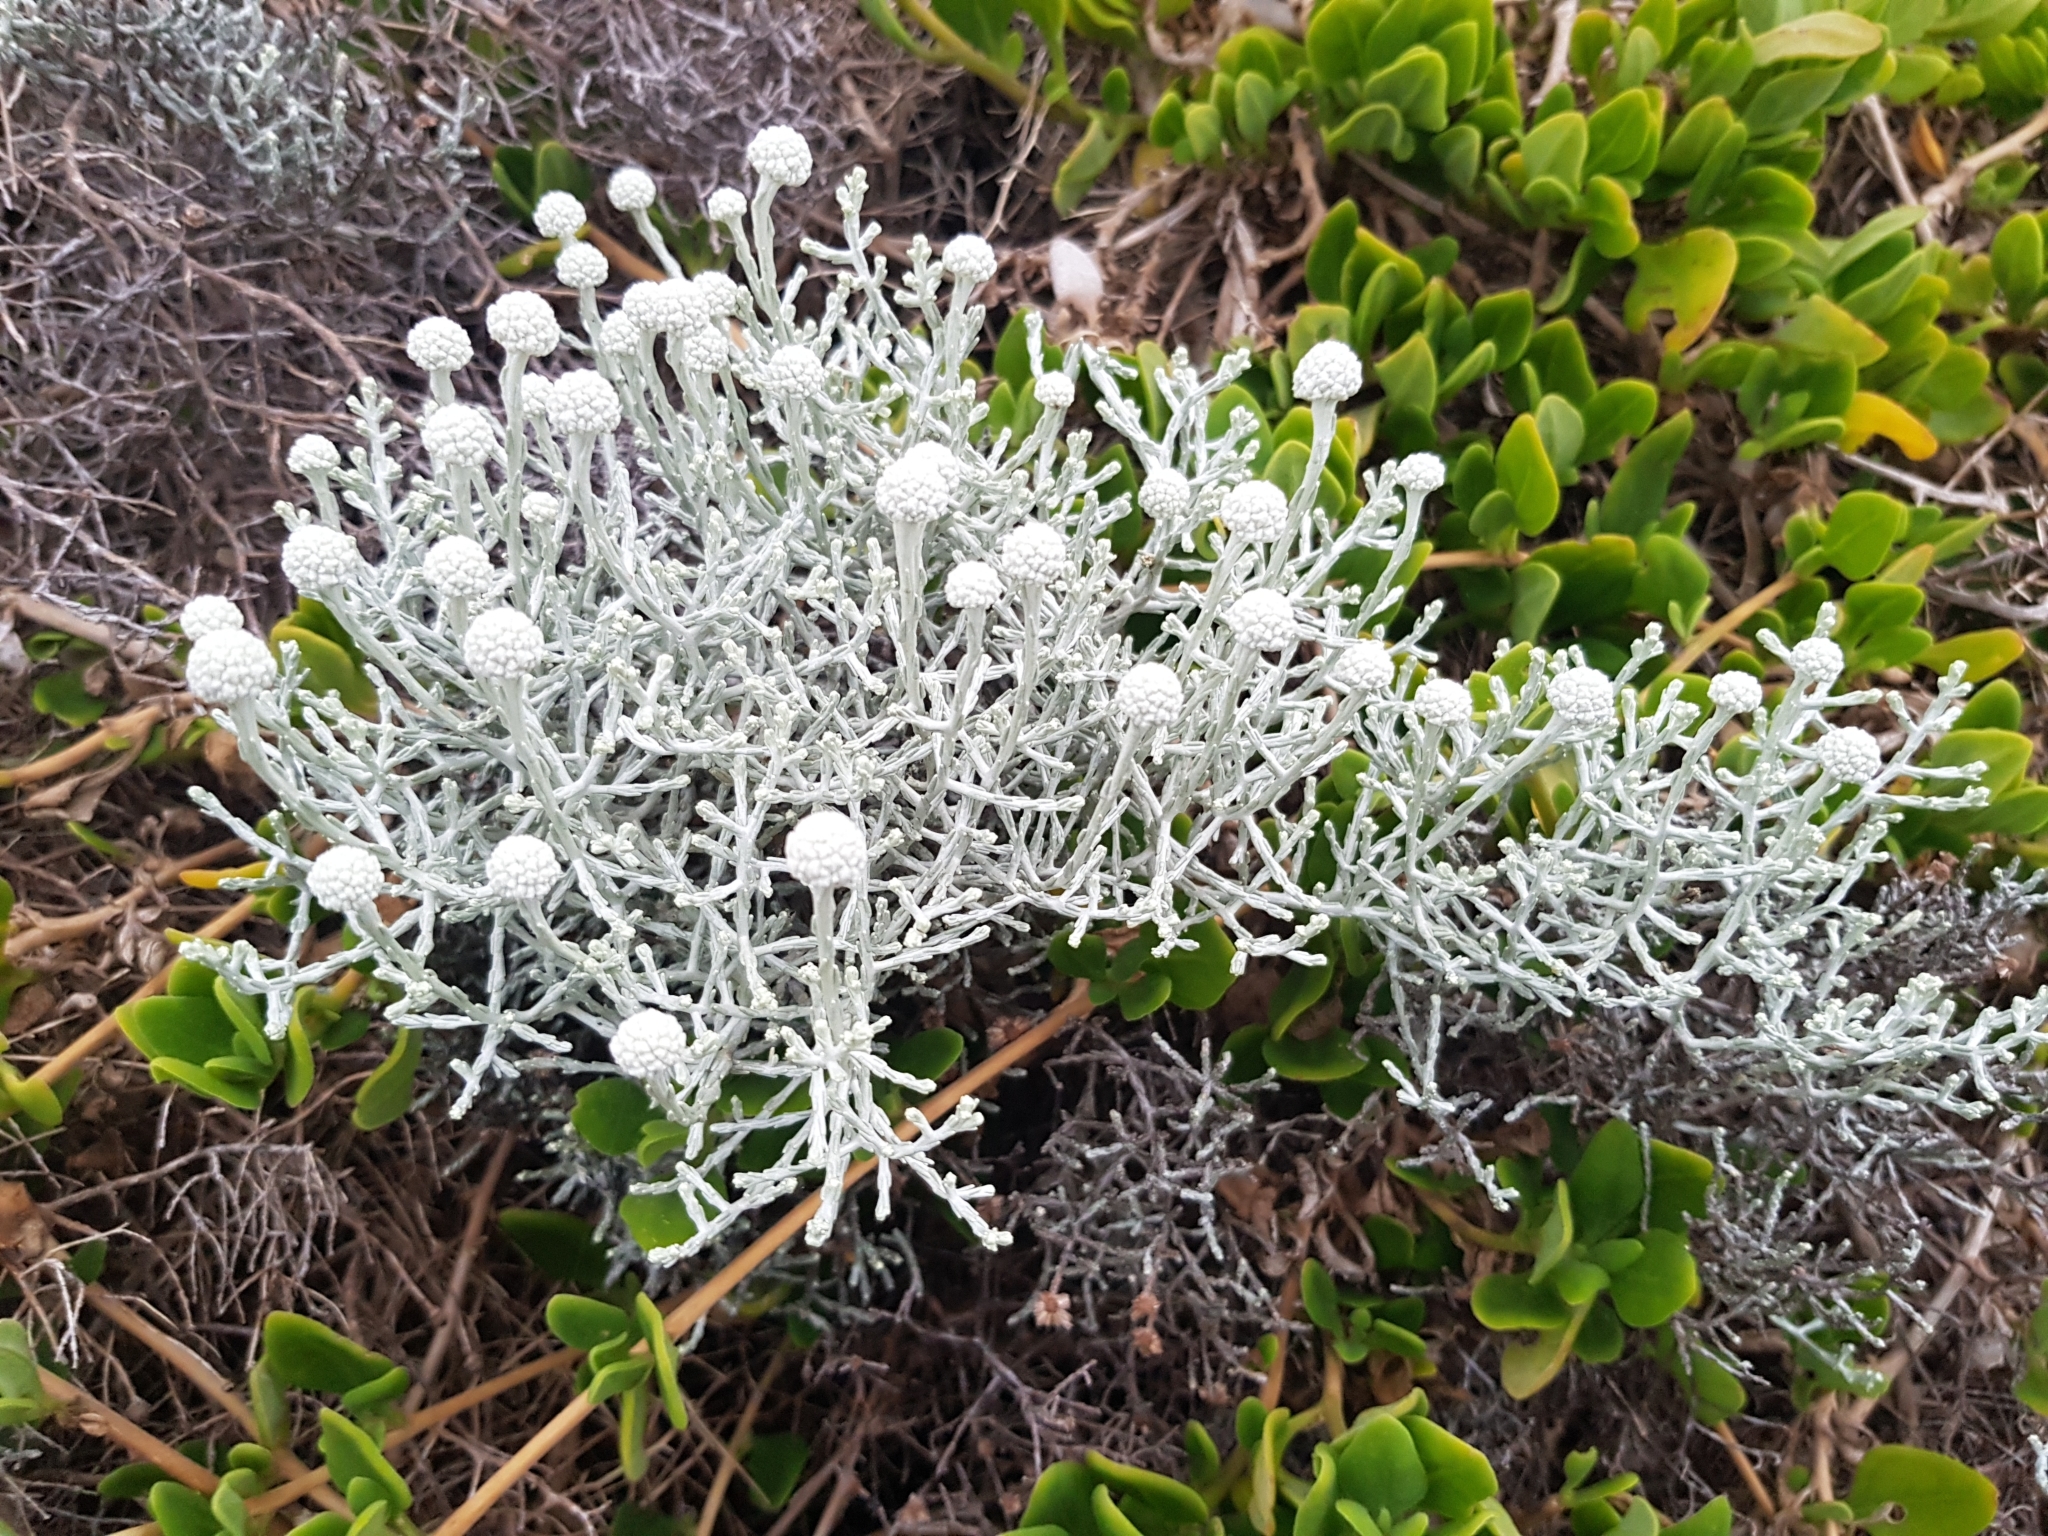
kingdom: Plantae
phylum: Tracheophyta
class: Magnoliopsida
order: Asterales
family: Asteraceae
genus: Calocephalus
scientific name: Calocephalus brownii
